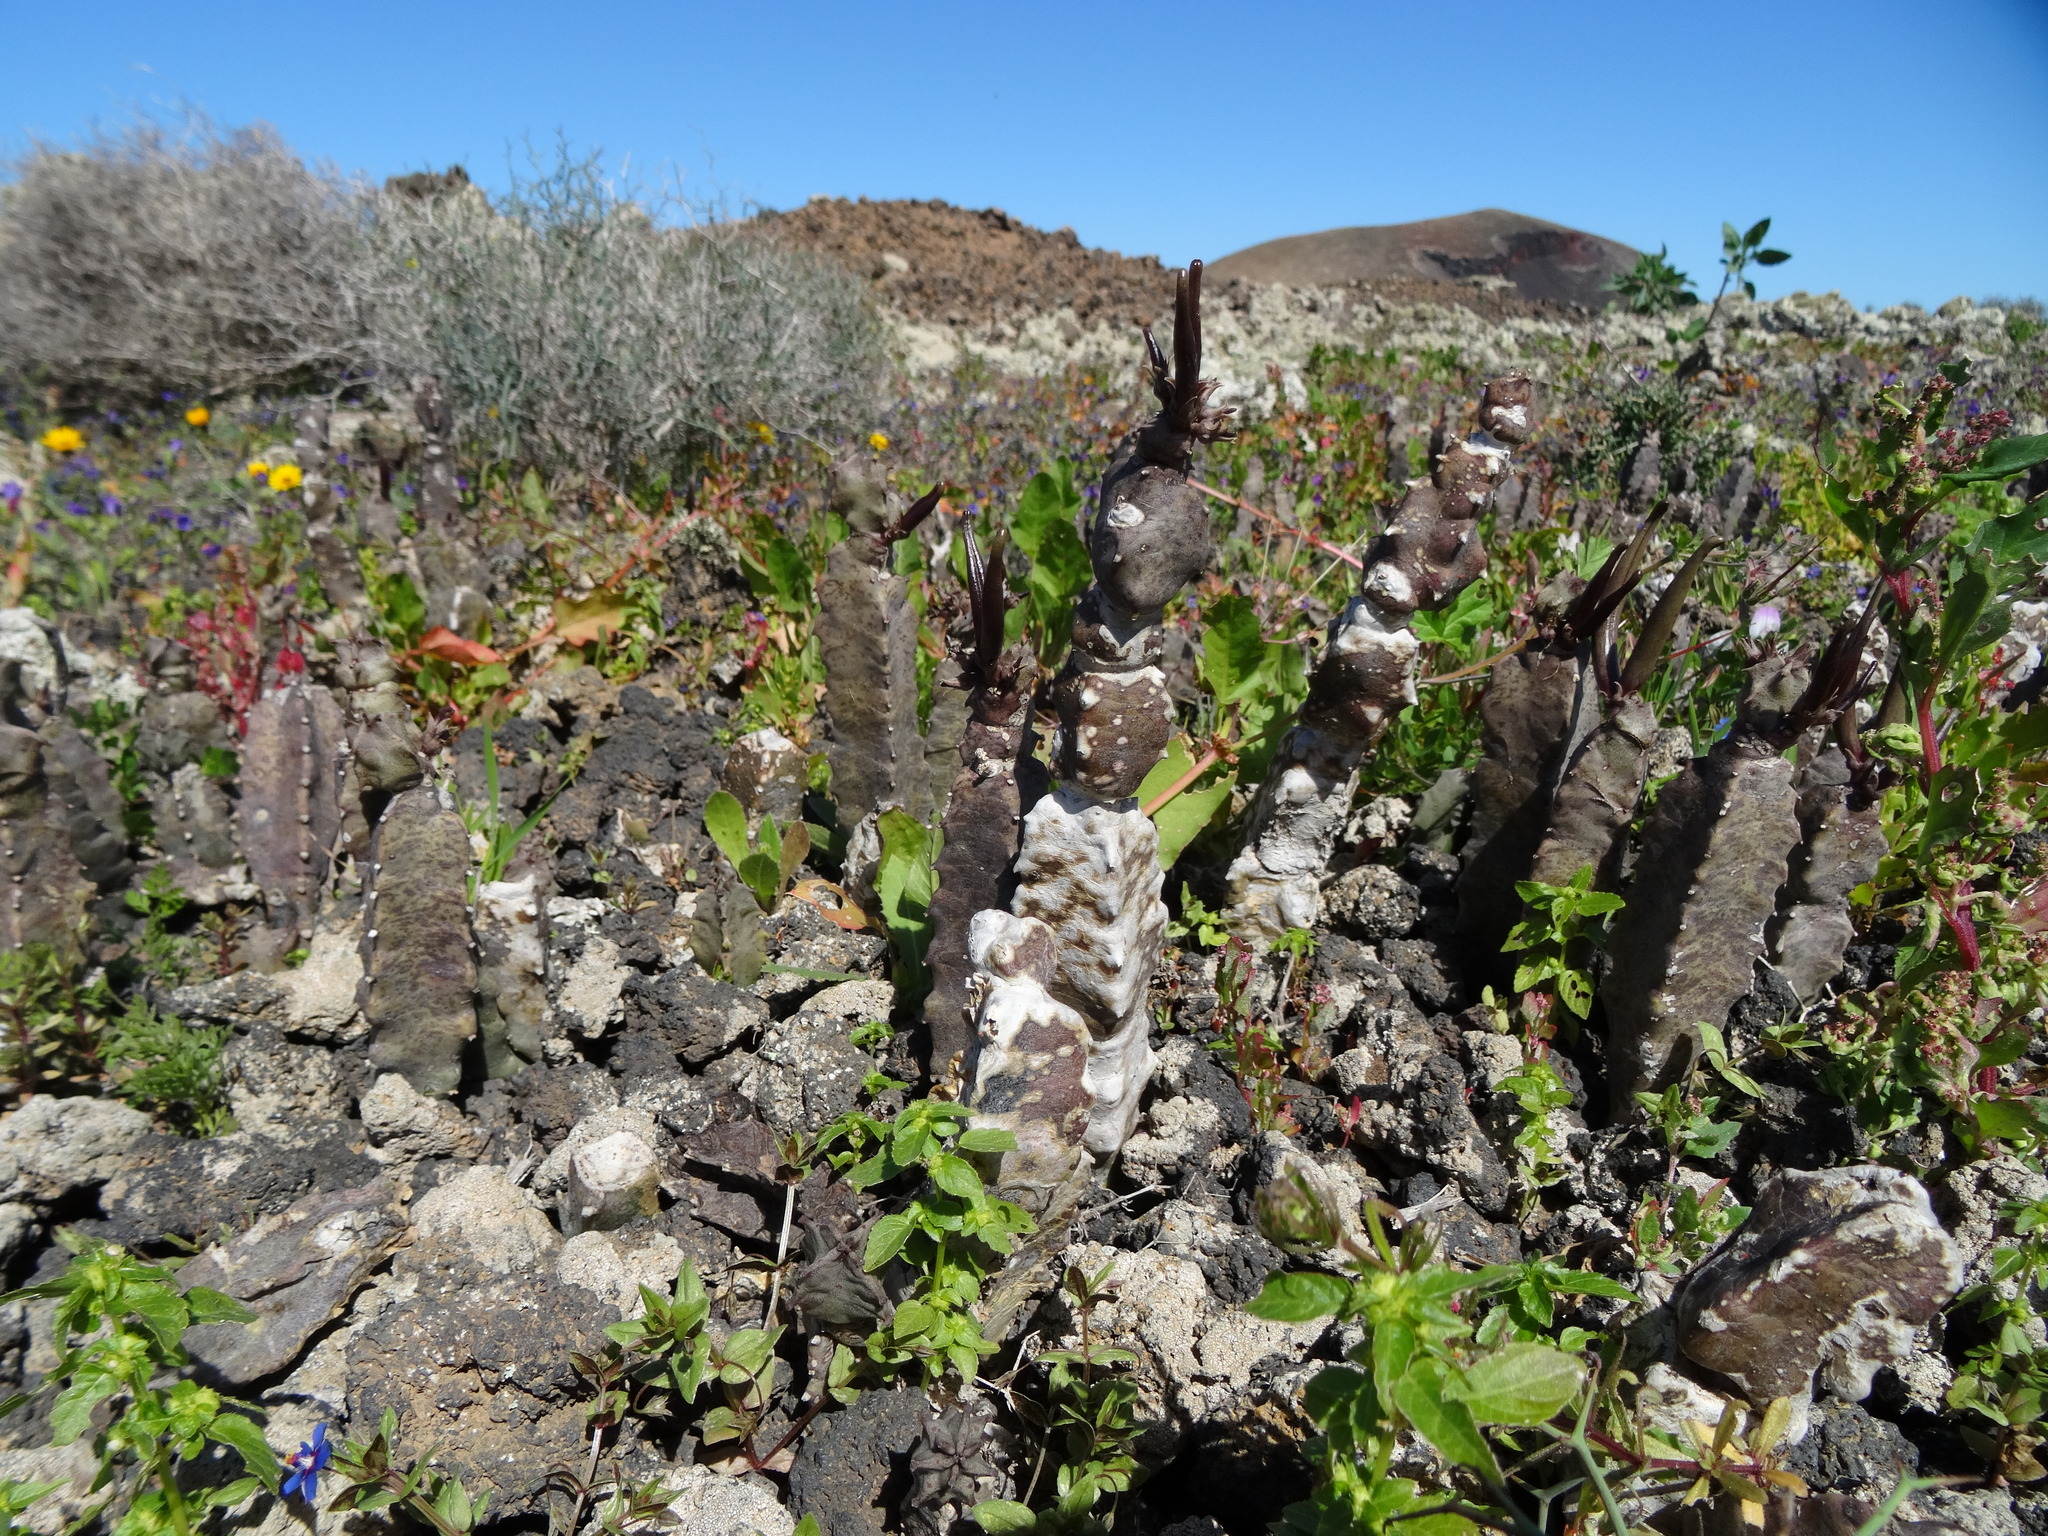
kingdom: Plantae
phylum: Tracheophyta
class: Magnoliopsida
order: Gentianales
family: Apocynaceae
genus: Ceropegia
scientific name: Ceropegia burchardii
